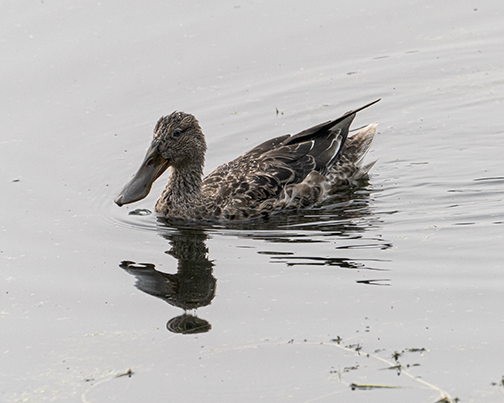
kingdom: Animalia
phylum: Chordata
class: Aves
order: Anseriformes
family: Anatidae
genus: Spatula
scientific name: Spatula clypeata
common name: Northern shoveler
